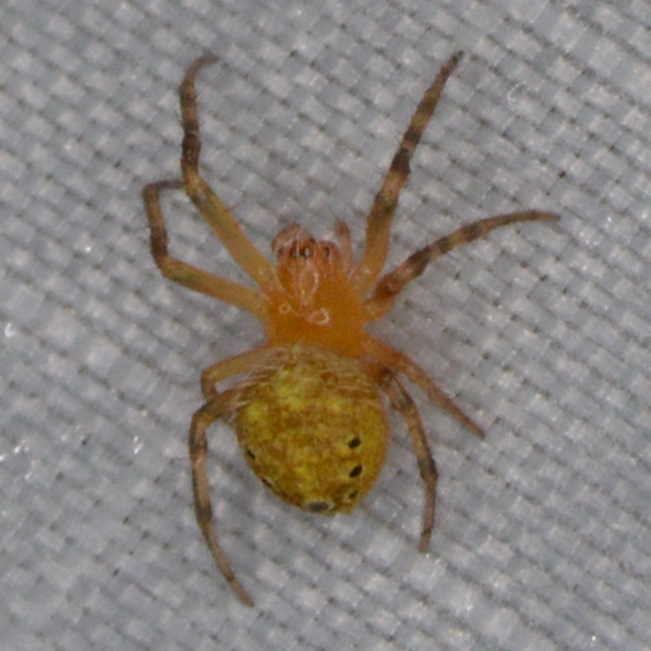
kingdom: Animalia
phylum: Arthropoda
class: Arachnida
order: Araneae
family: Araneidae
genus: Eriophora
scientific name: Eriophora ravilla
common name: Orb weavers
